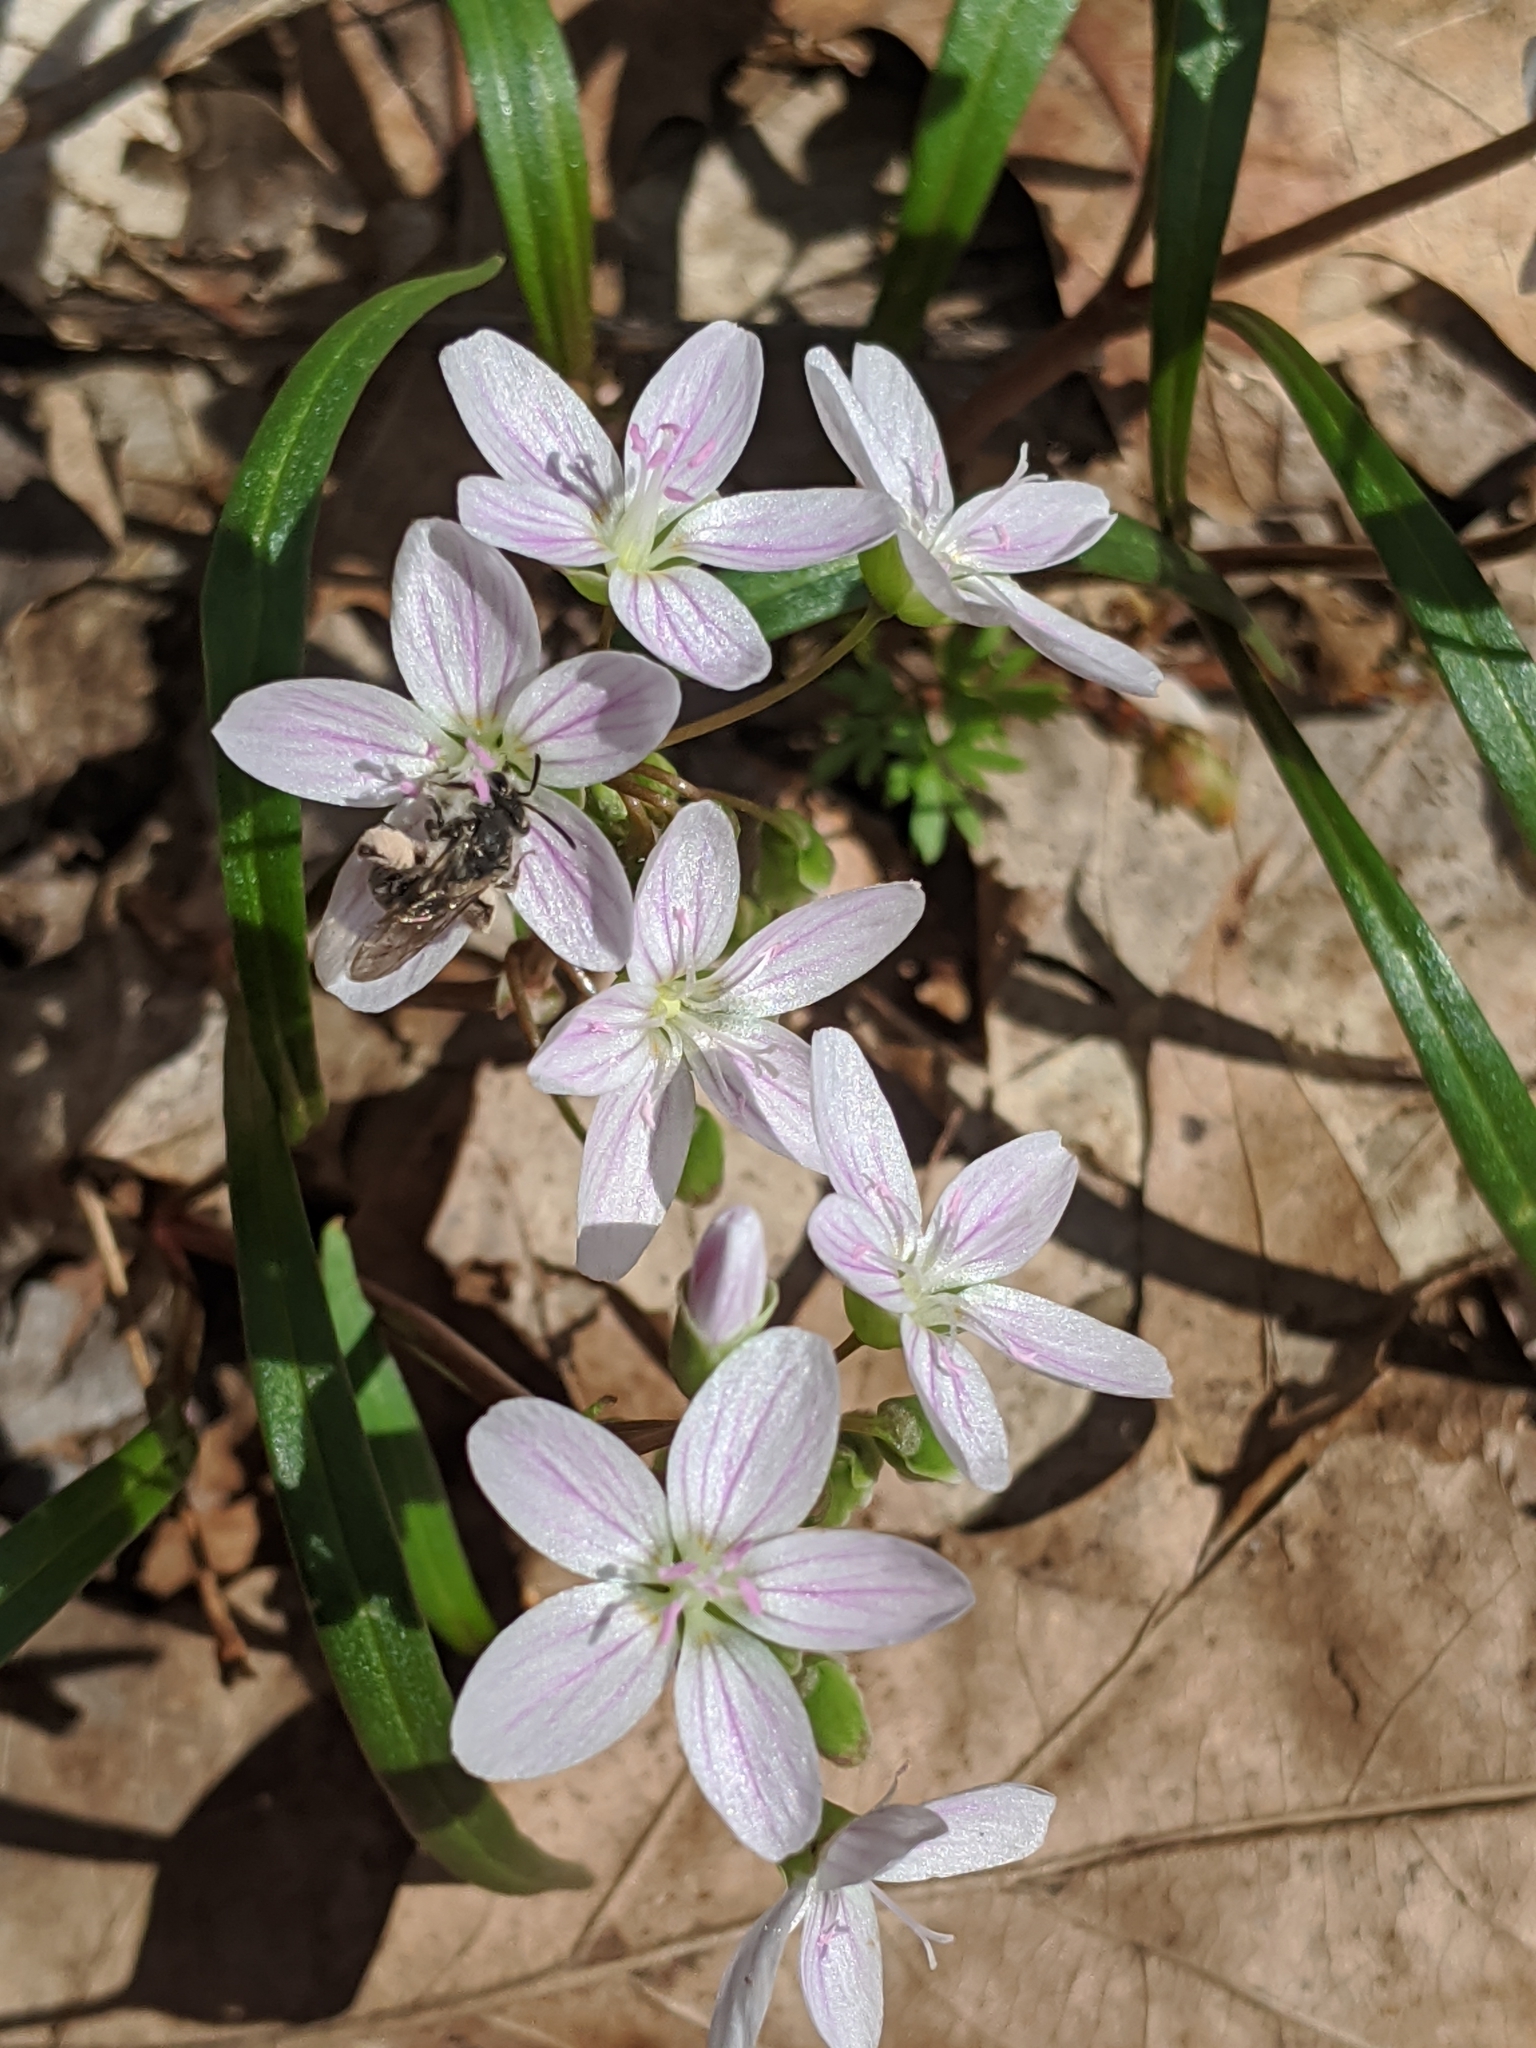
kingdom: Animalia
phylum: Arthropoda
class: Insecta
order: Hymenoptera
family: Andrenidae
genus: Andrena
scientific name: Andrena erigeniae
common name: Spring beauty miner
